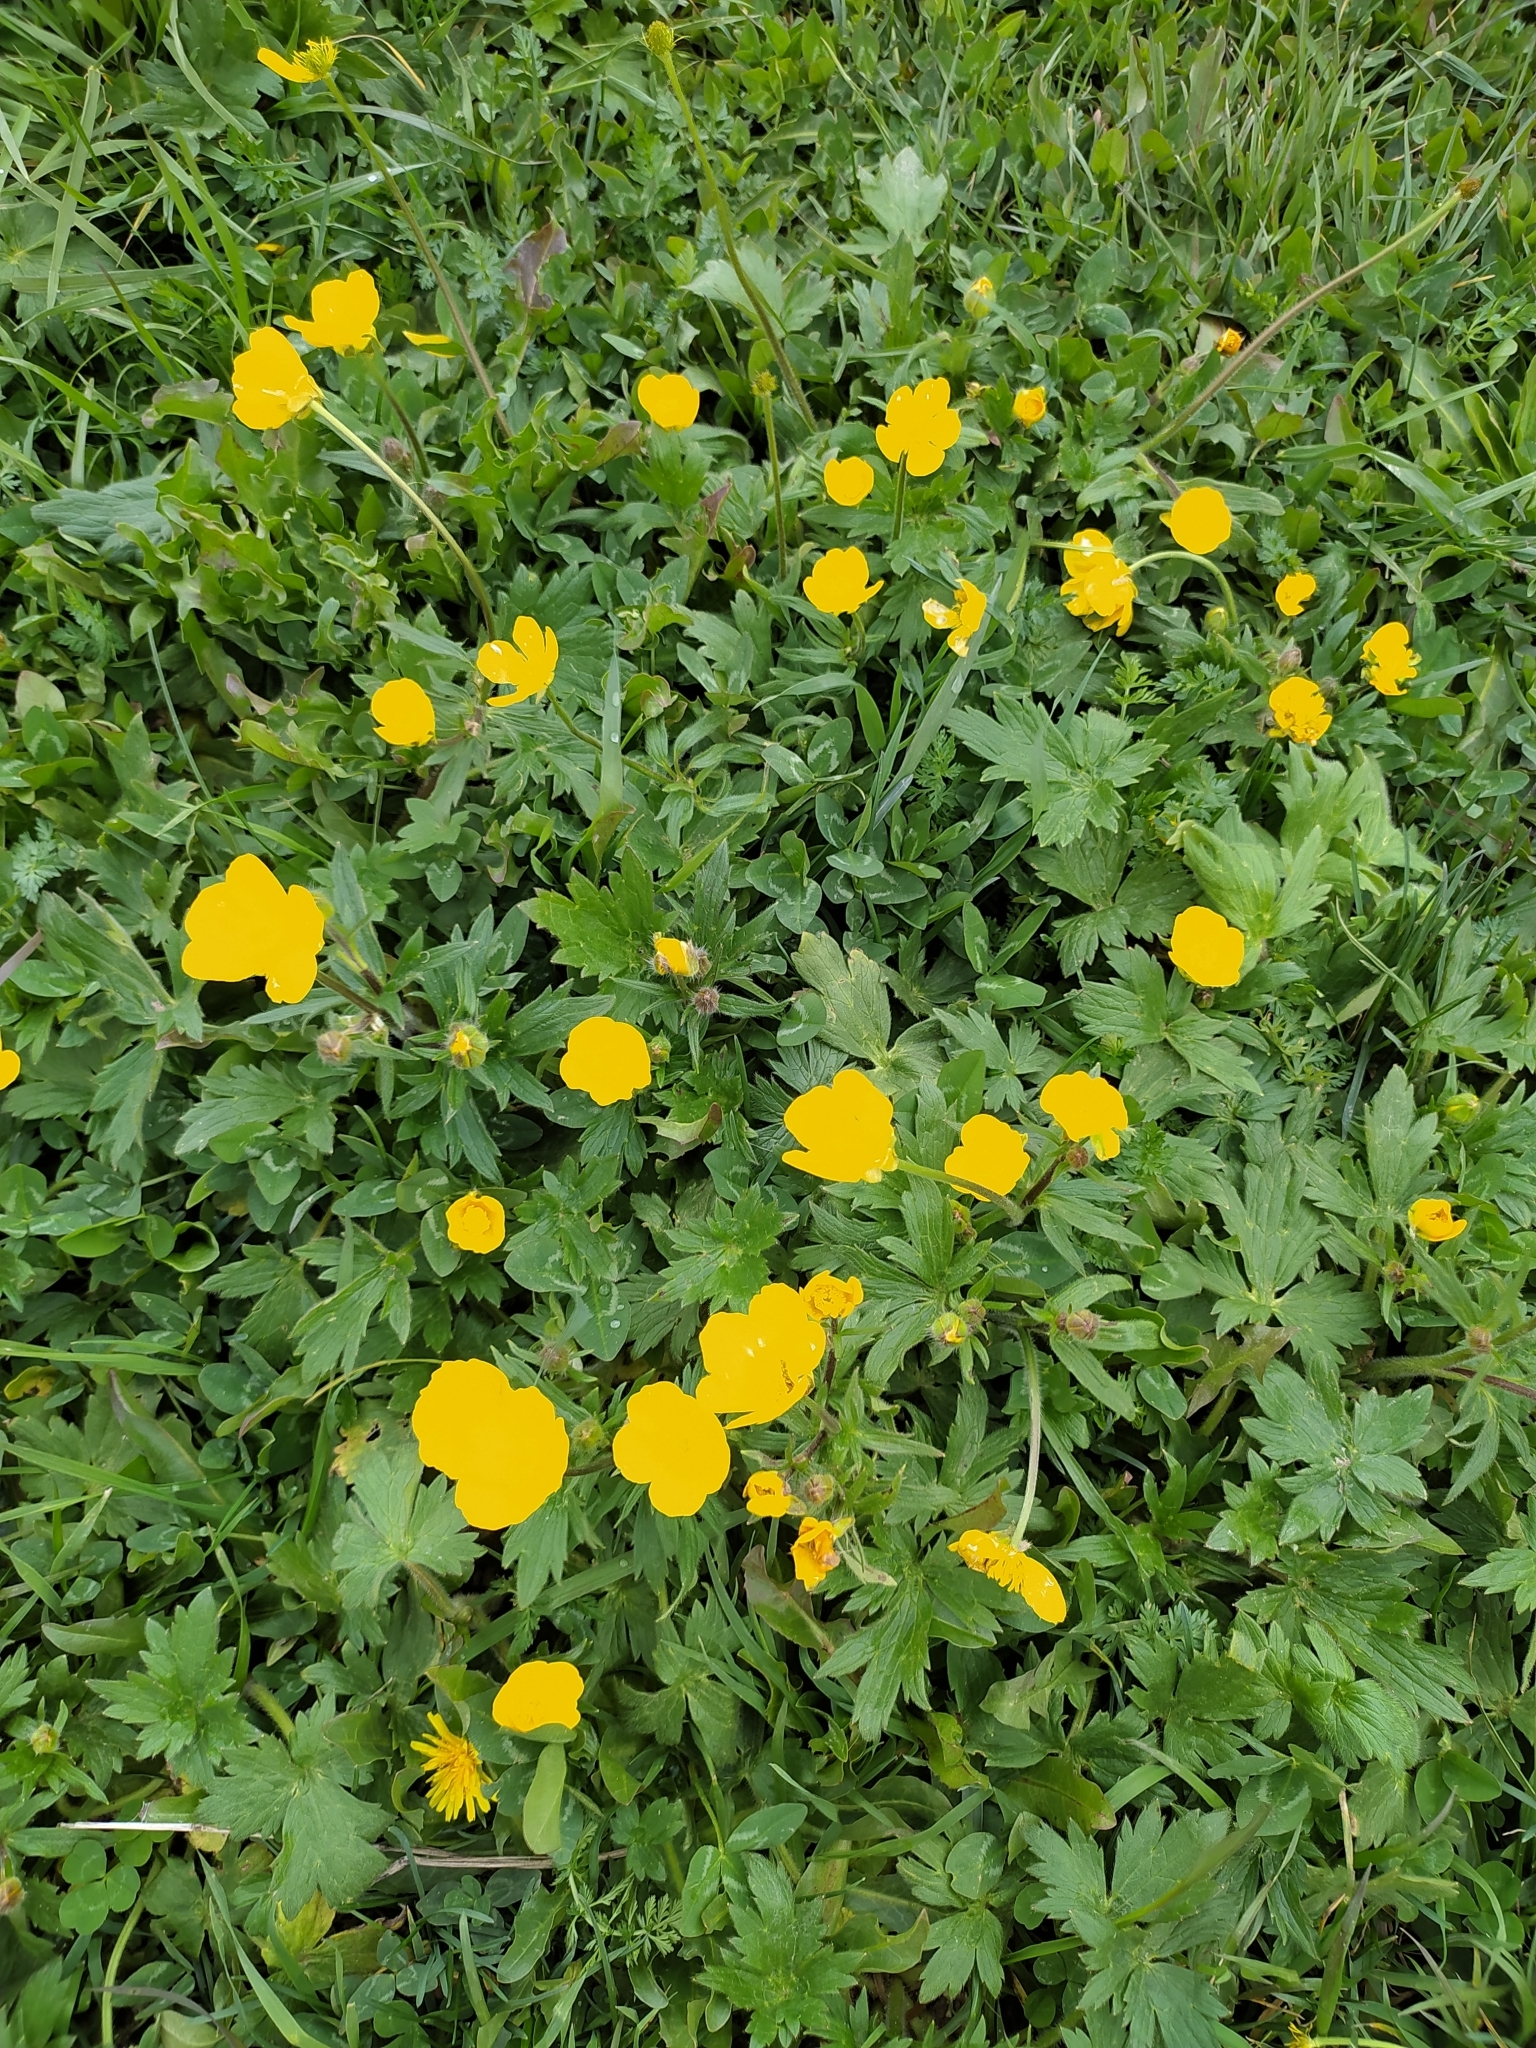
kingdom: Plantae
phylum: Tracheophyta
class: Magnoliopsida
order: Ranunculales
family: Ranunculaceae
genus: Ranunculus
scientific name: Ranunculus repens
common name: Creeping buttercup
